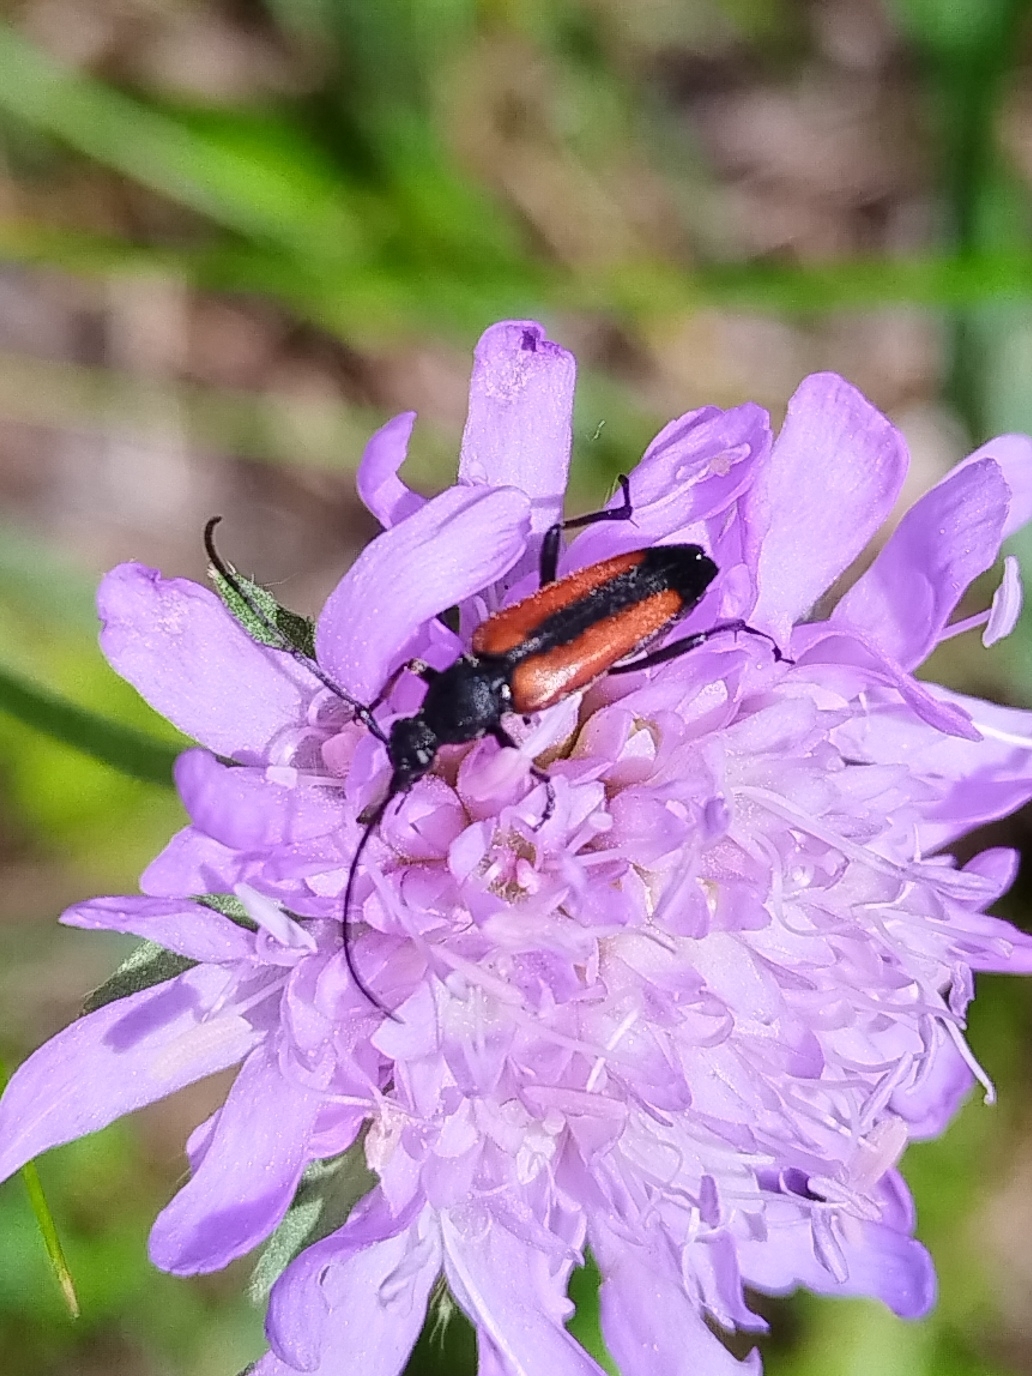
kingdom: Animalia
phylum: Arthropoda
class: Insecta
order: Coleoptera
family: Cerambycidae
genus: Stenurella
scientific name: Stenurella melanura
